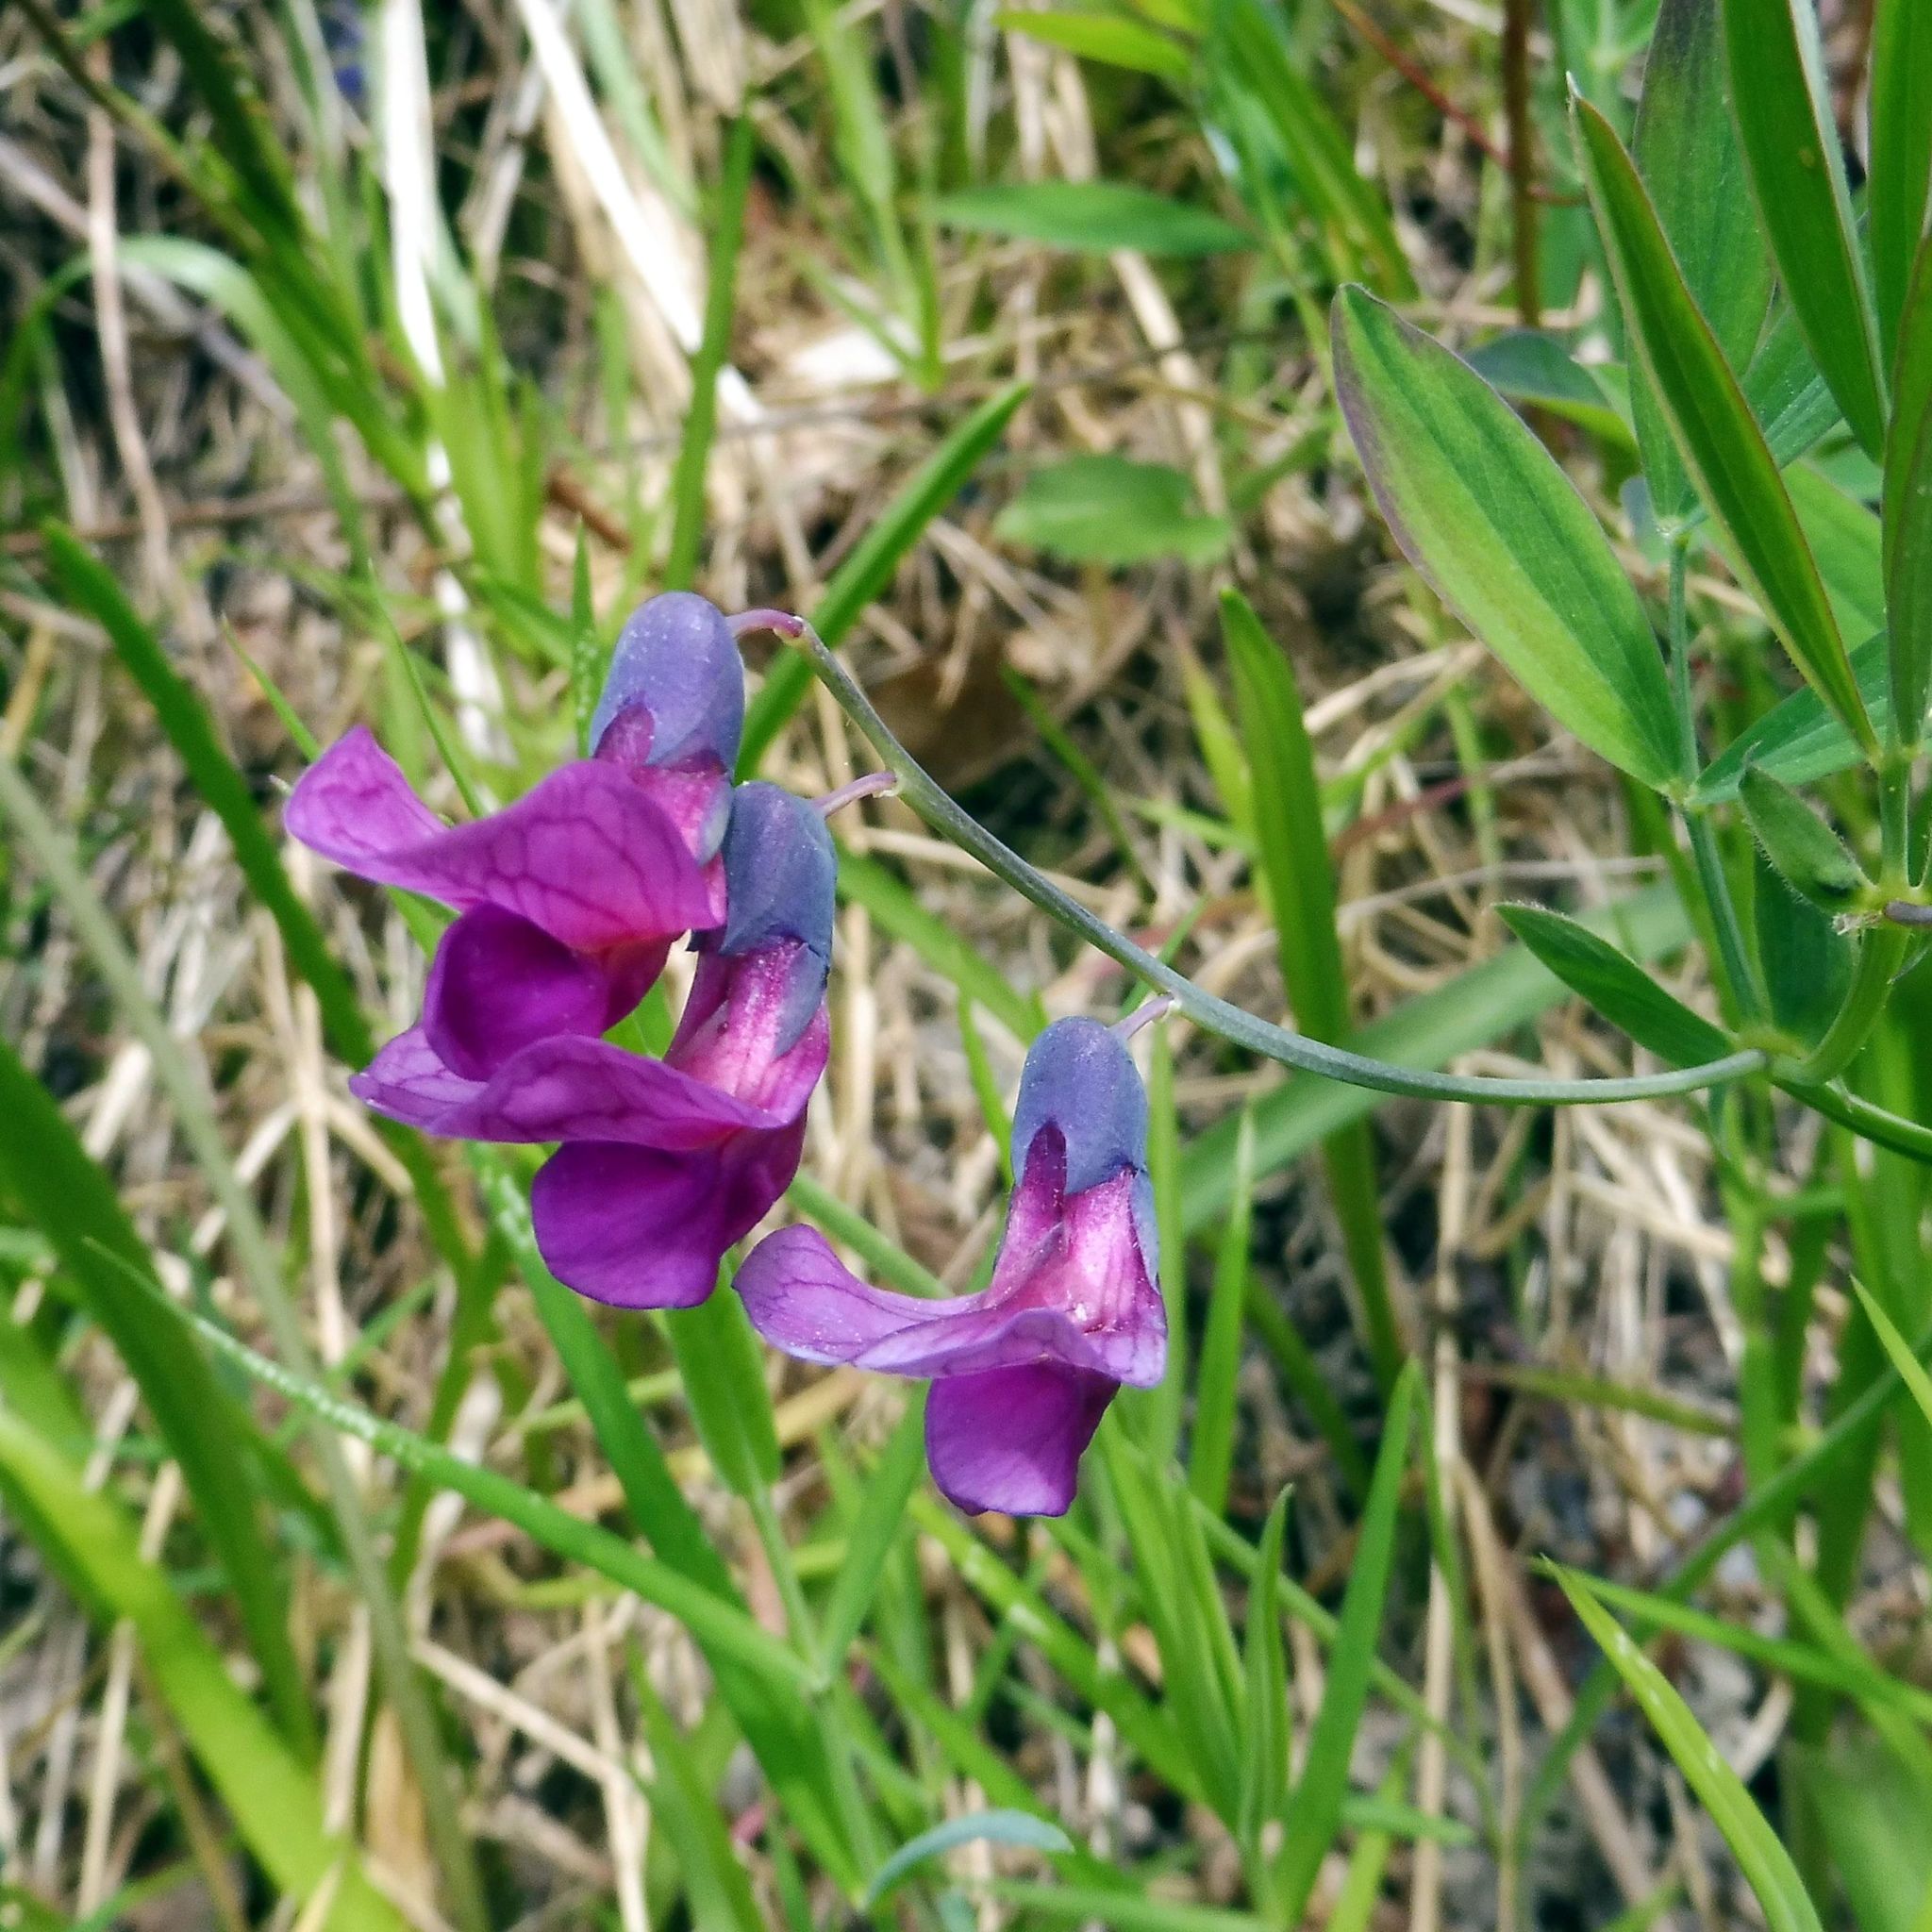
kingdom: Plantae
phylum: Tracheophyta
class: Magnoliopsida
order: Fabales
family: Fabaceae
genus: Lathyrus
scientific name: Lathyrus linifolius
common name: Bitter-vetch
